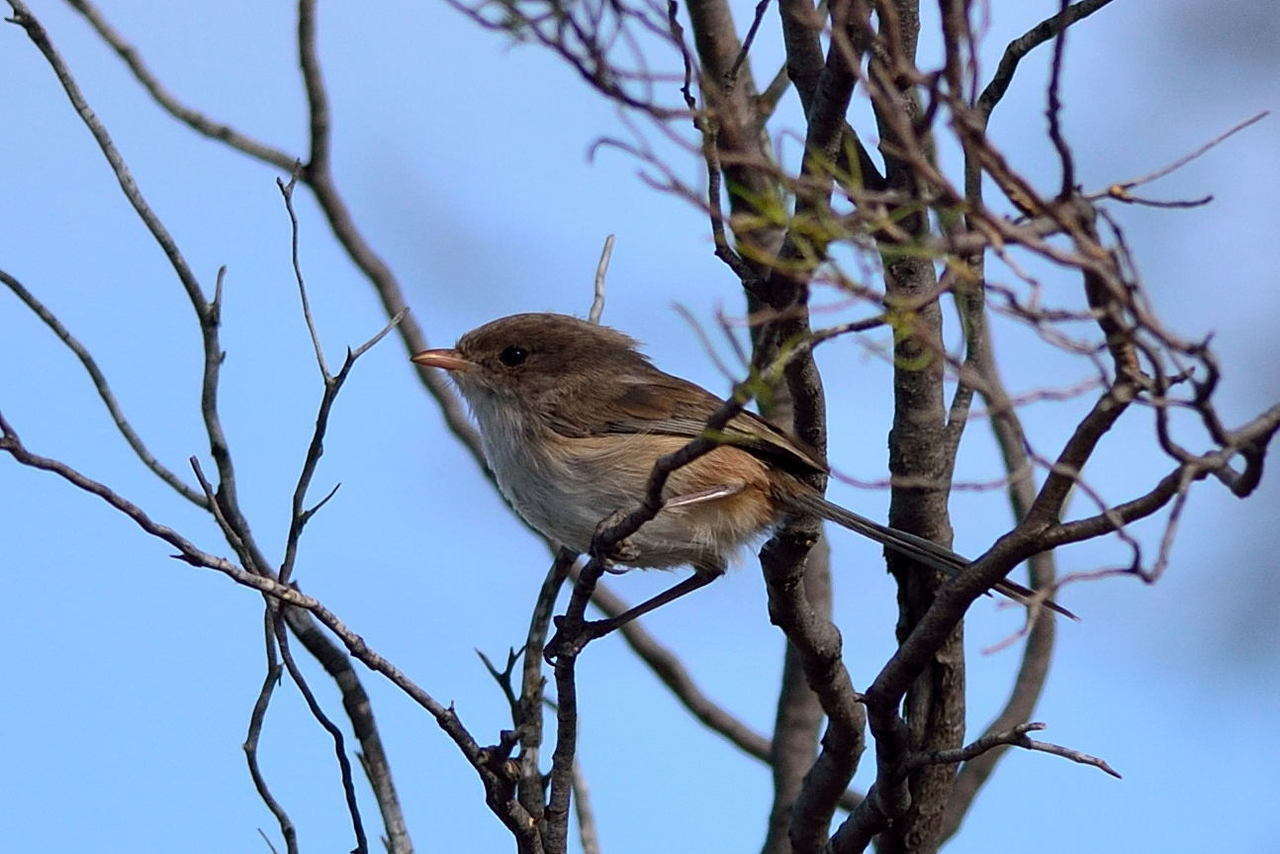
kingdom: Animalia
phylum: Chordata
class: Aves
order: Passeriformes
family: Maluridae
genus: Malurus
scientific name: Malurus leucopterus
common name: White-winged fairywren
